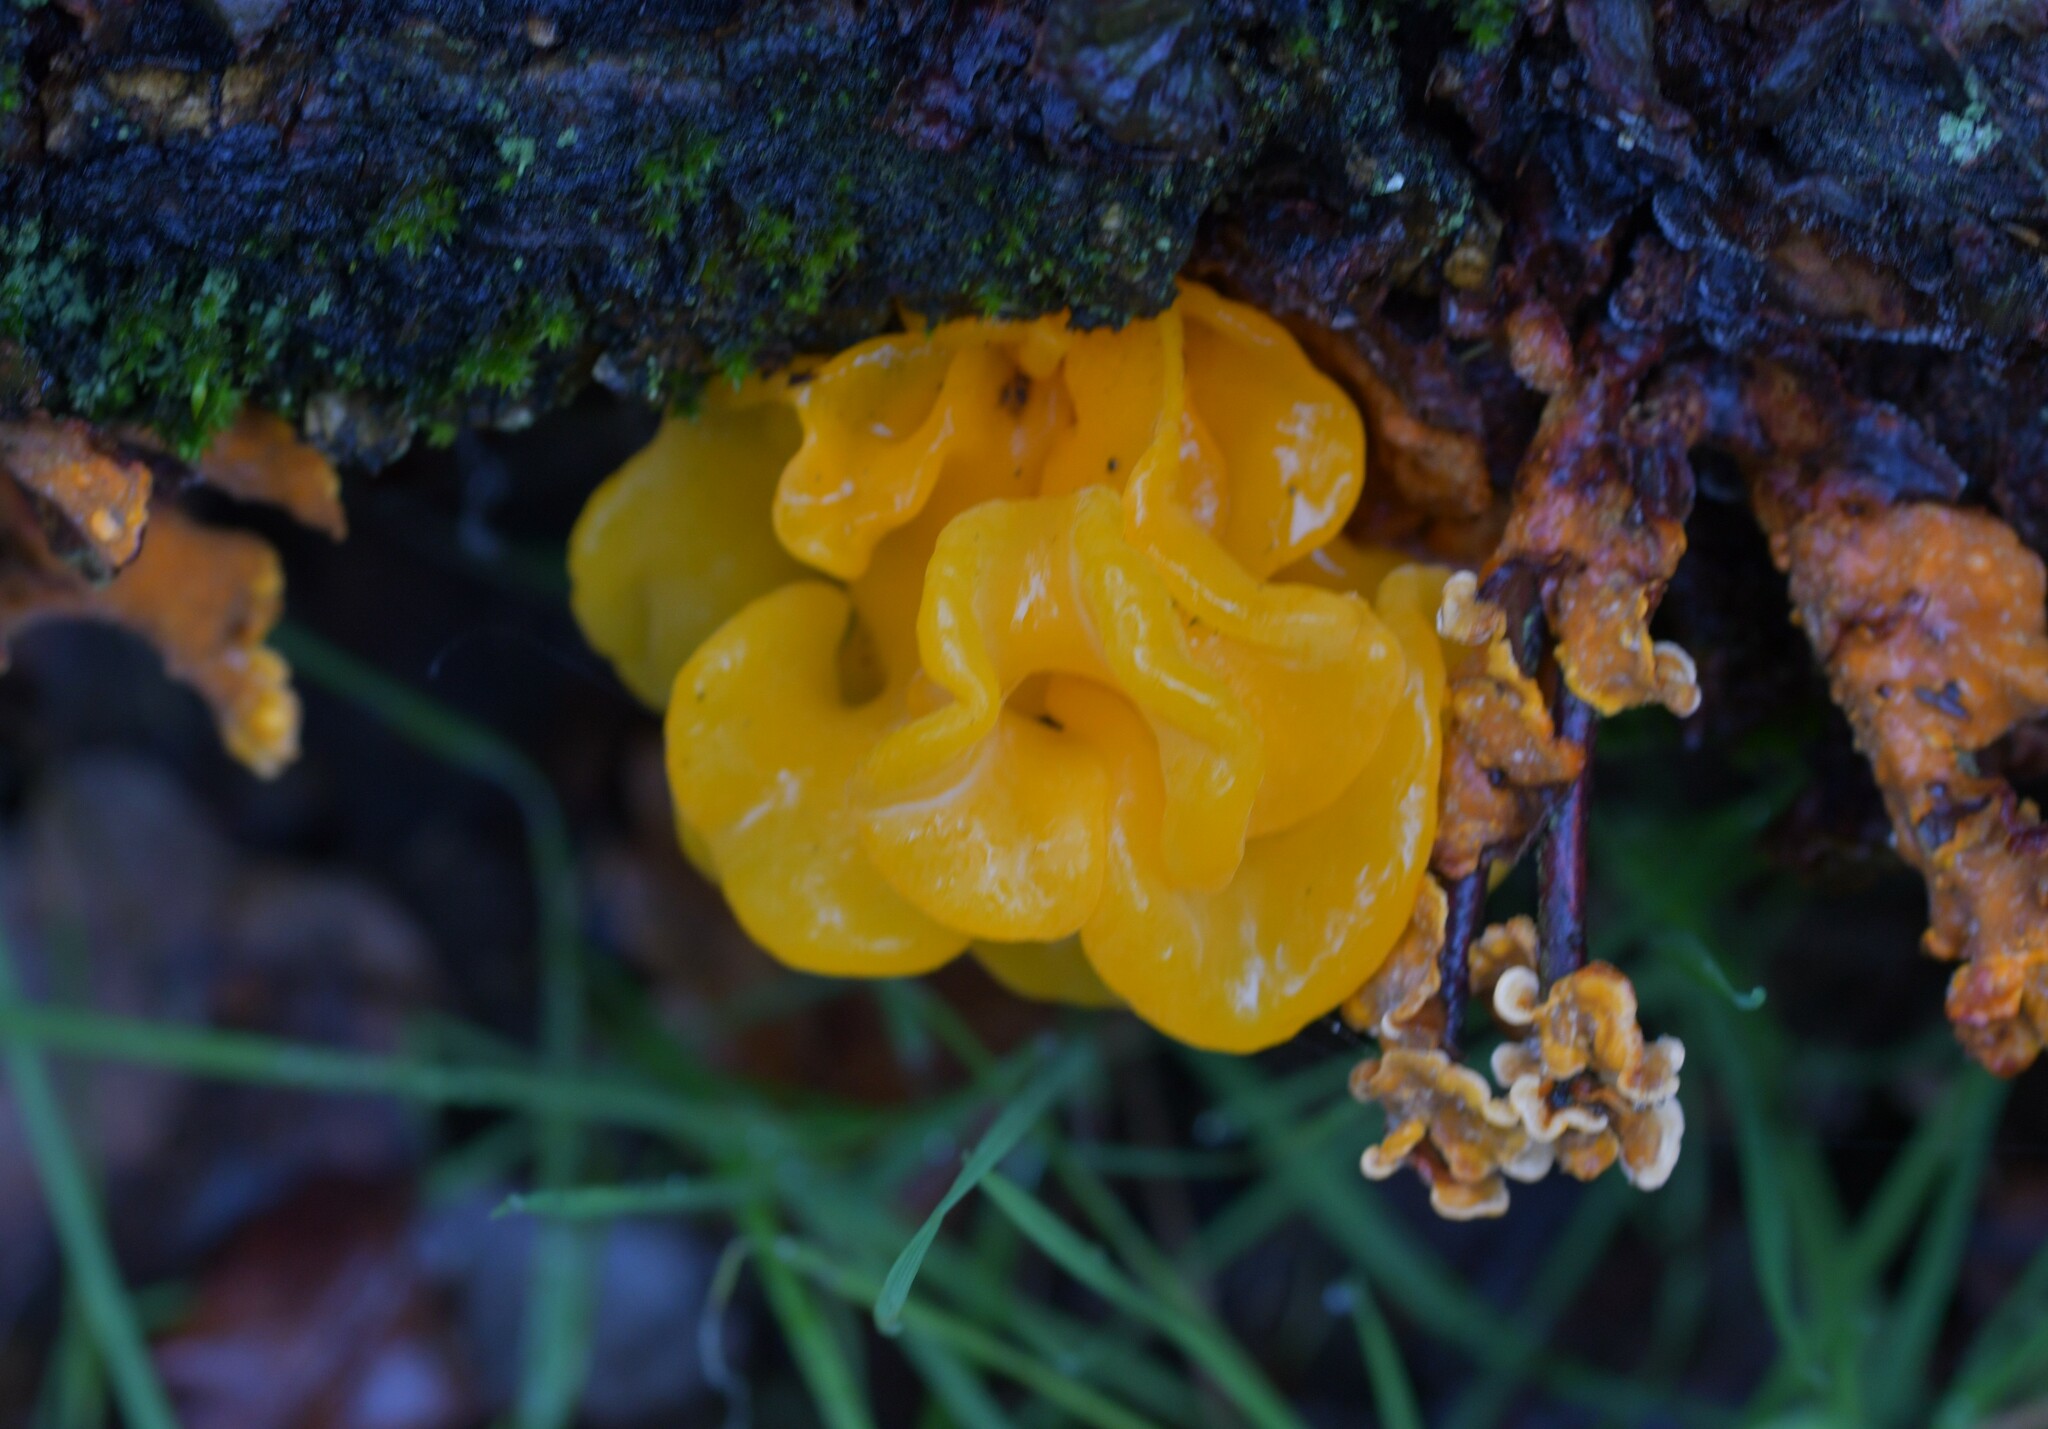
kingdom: Fungi
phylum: Basidiomycota
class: Tremellomycetes
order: Tremellales
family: Naemateliaceae
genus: Naematelia
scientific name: Naematelia aurantia
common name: Golden ear
